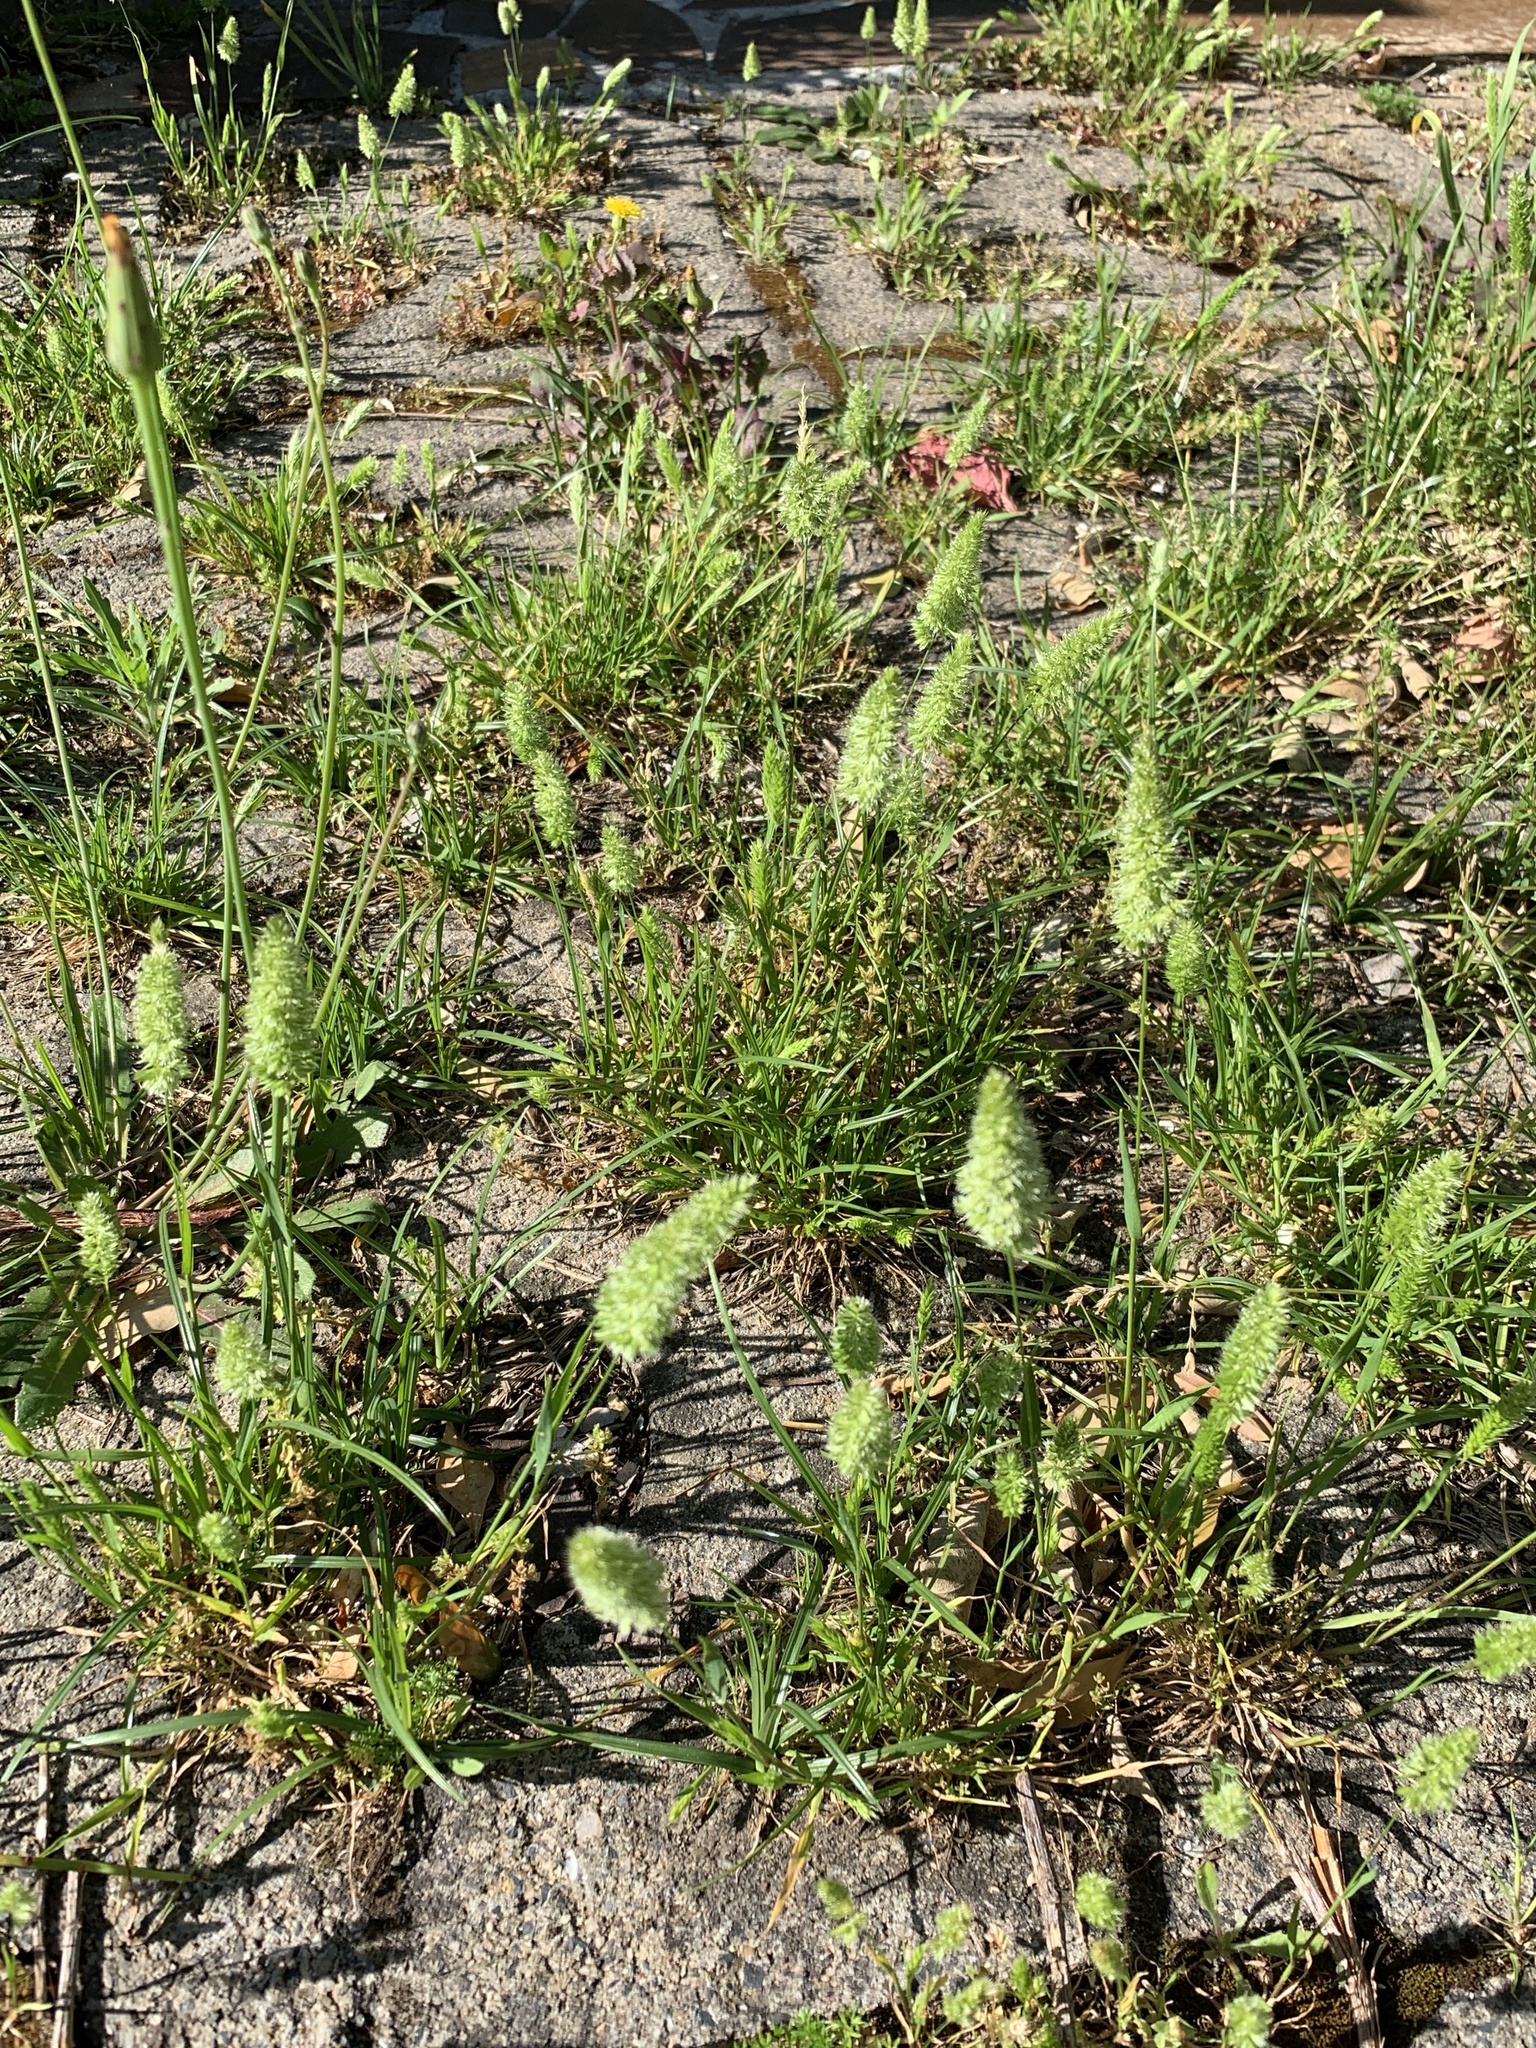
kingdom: Plantae
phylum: Tracheophyta
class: Liliopsida
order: Poales
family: Poaceae
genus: Rostraria
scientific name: Rostraria cristata
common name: Mediterranean hair-grass
